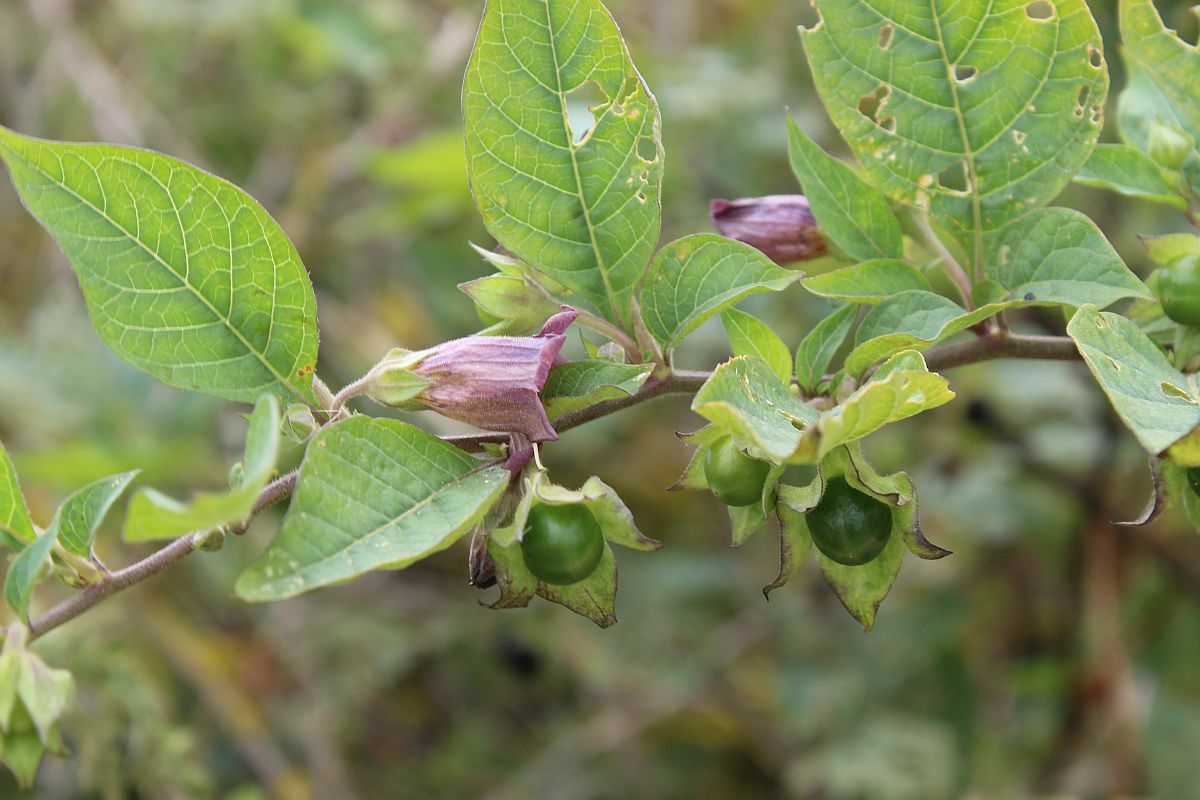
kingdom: Plantae
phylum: Tracheophyta
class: Magnoliopsida
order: Solanales
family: Solanaceae
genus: Atropa
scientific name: Atropa belladonna
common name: Deadly nightshade
